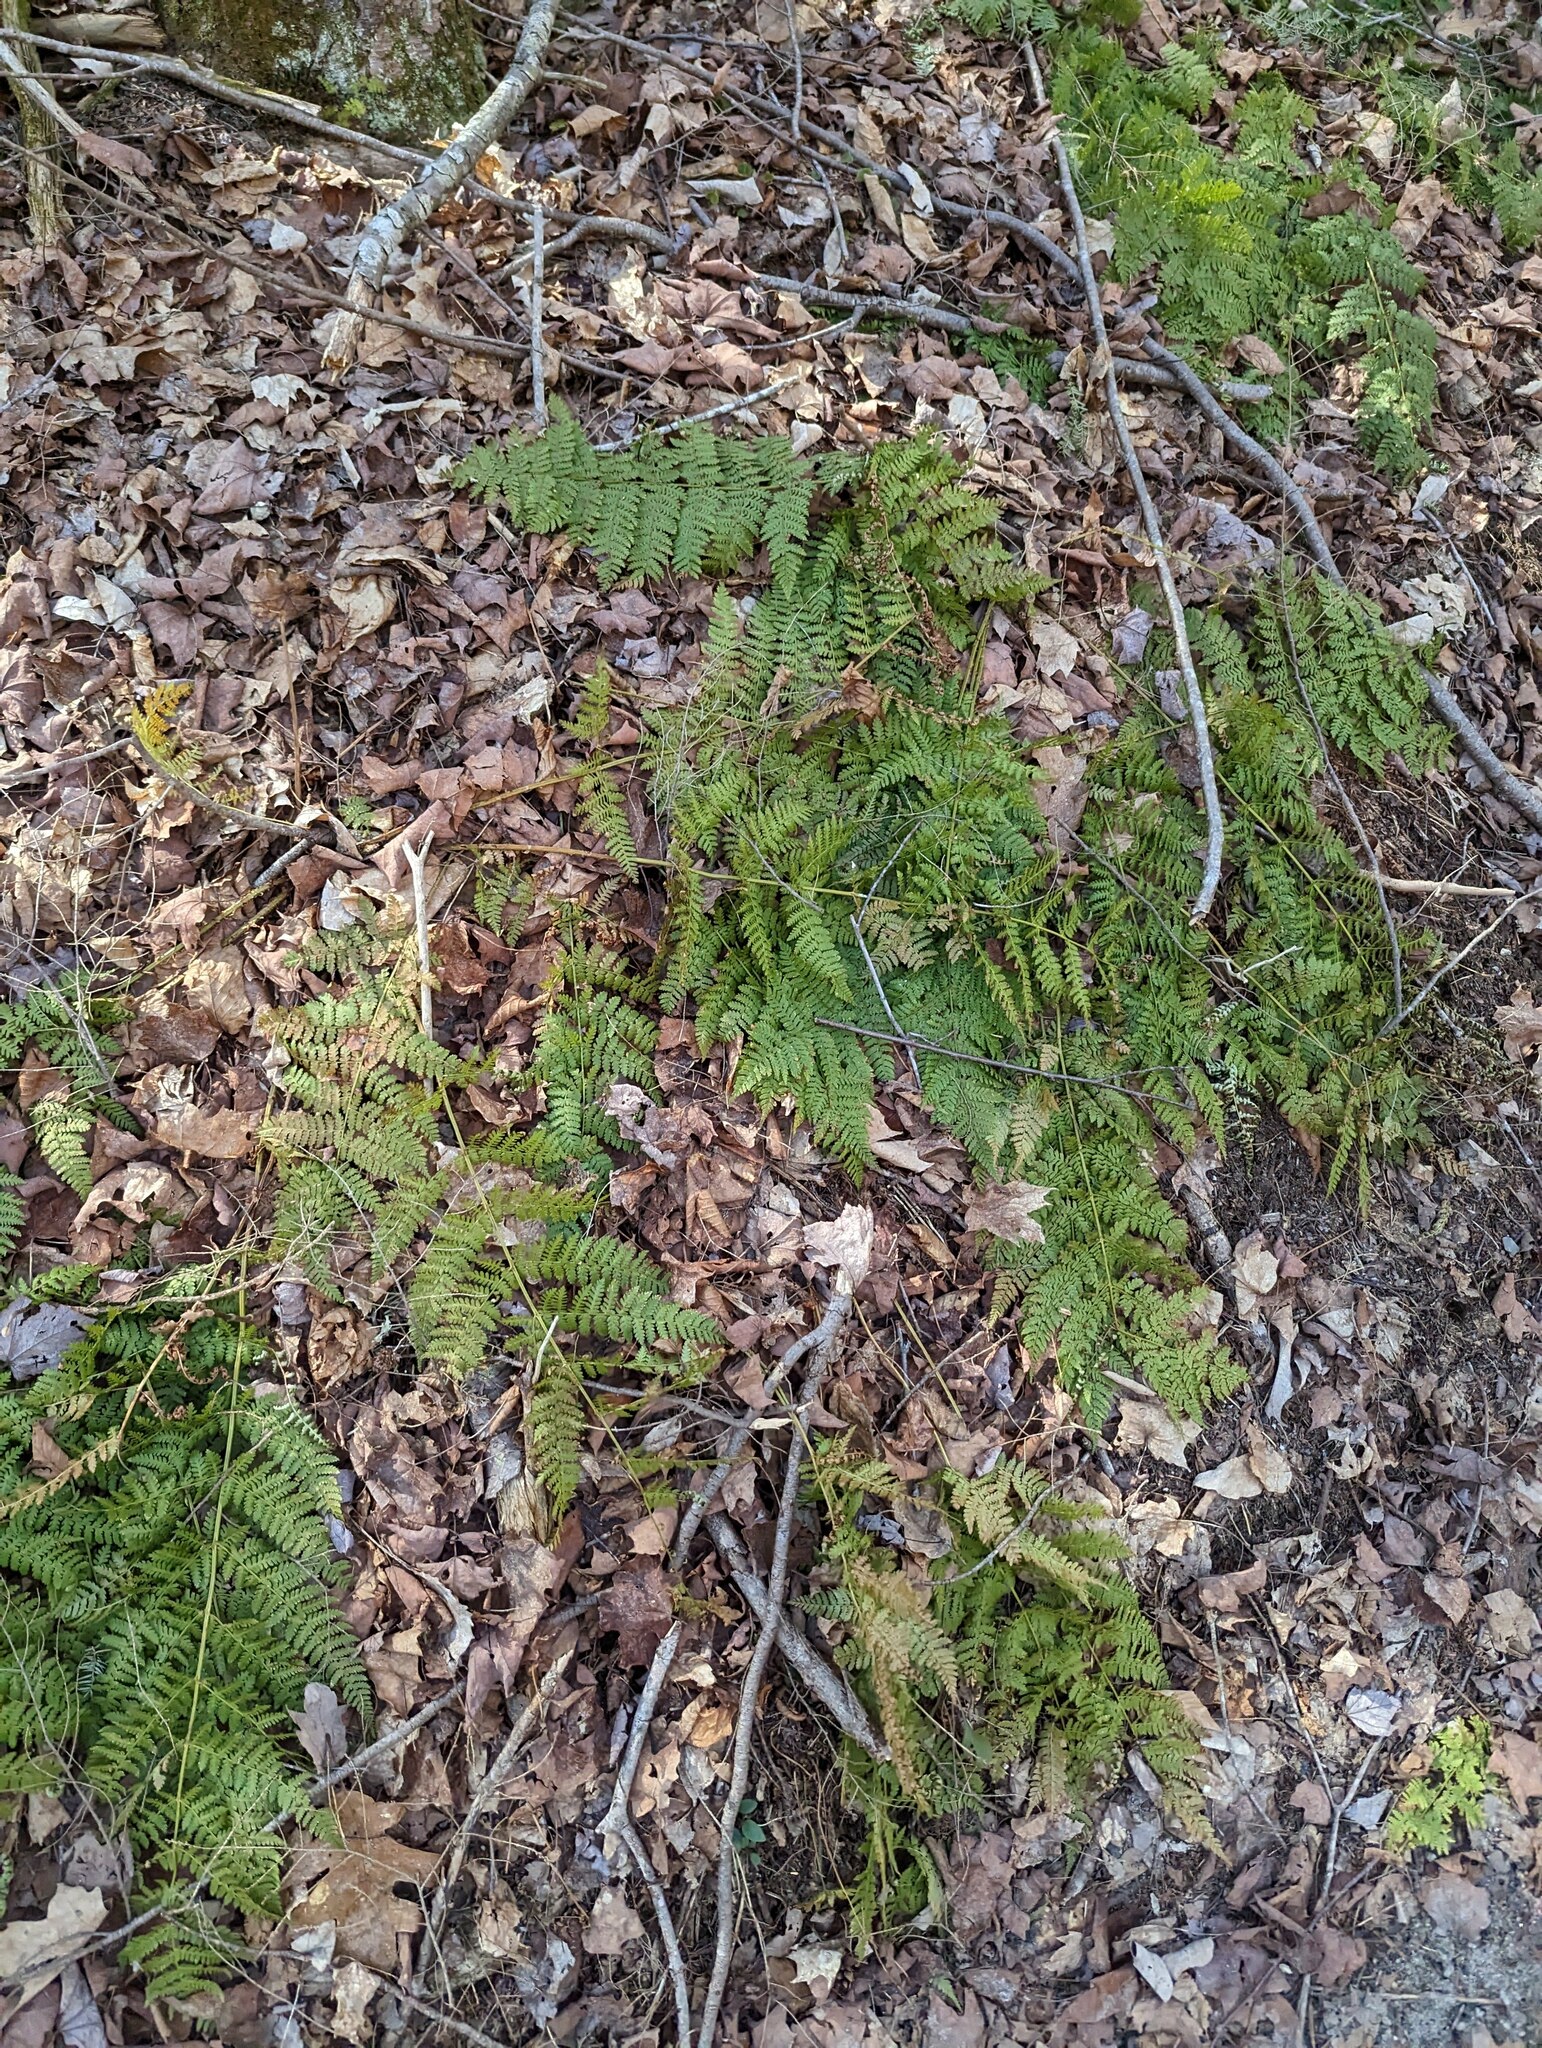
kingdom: Plantae
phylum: Tracheophyta
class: Polypodiopsida
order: Polypodiales
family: Dryopteridaceae
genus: Dryopteris
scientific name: Dryopteris intermedia
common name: Evergreen wood fern
